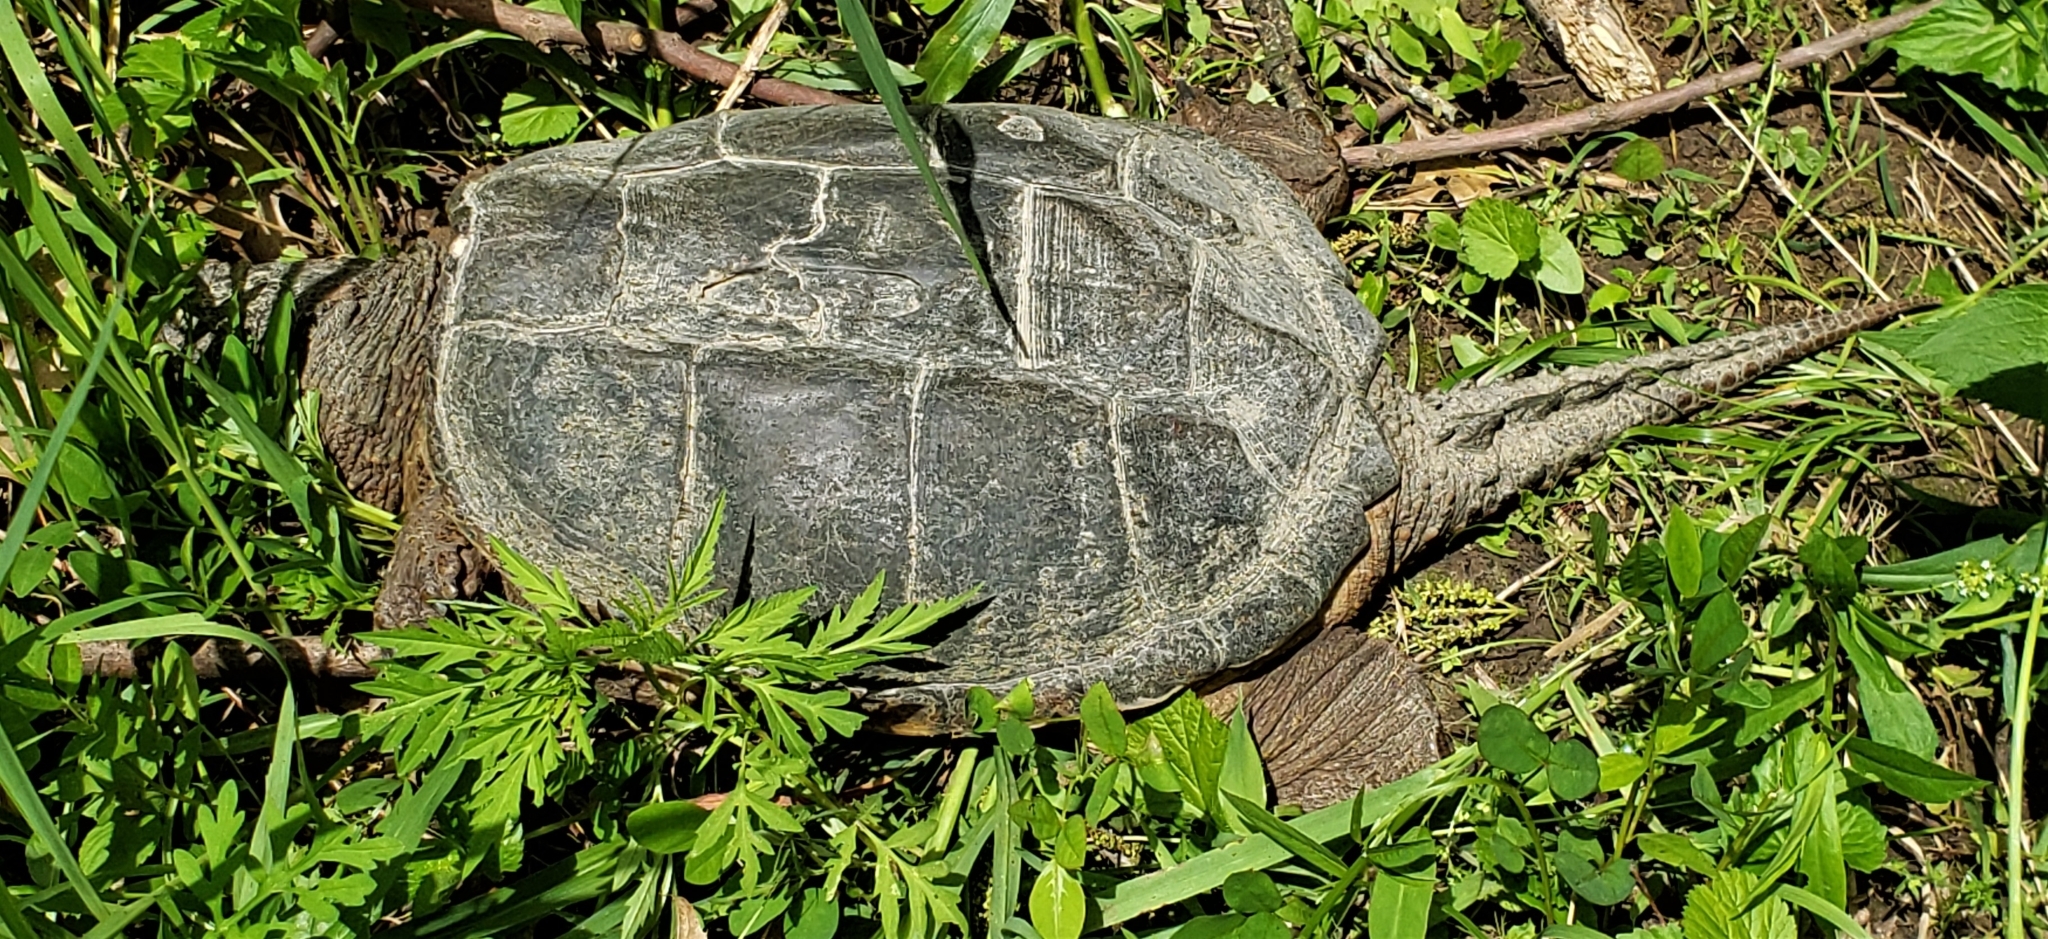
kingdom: Animalia
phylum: Chordata
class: Testudines
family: Chelydridae
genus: Chelydra
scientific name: Chelydra serpentina
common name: Common snapping turtle
